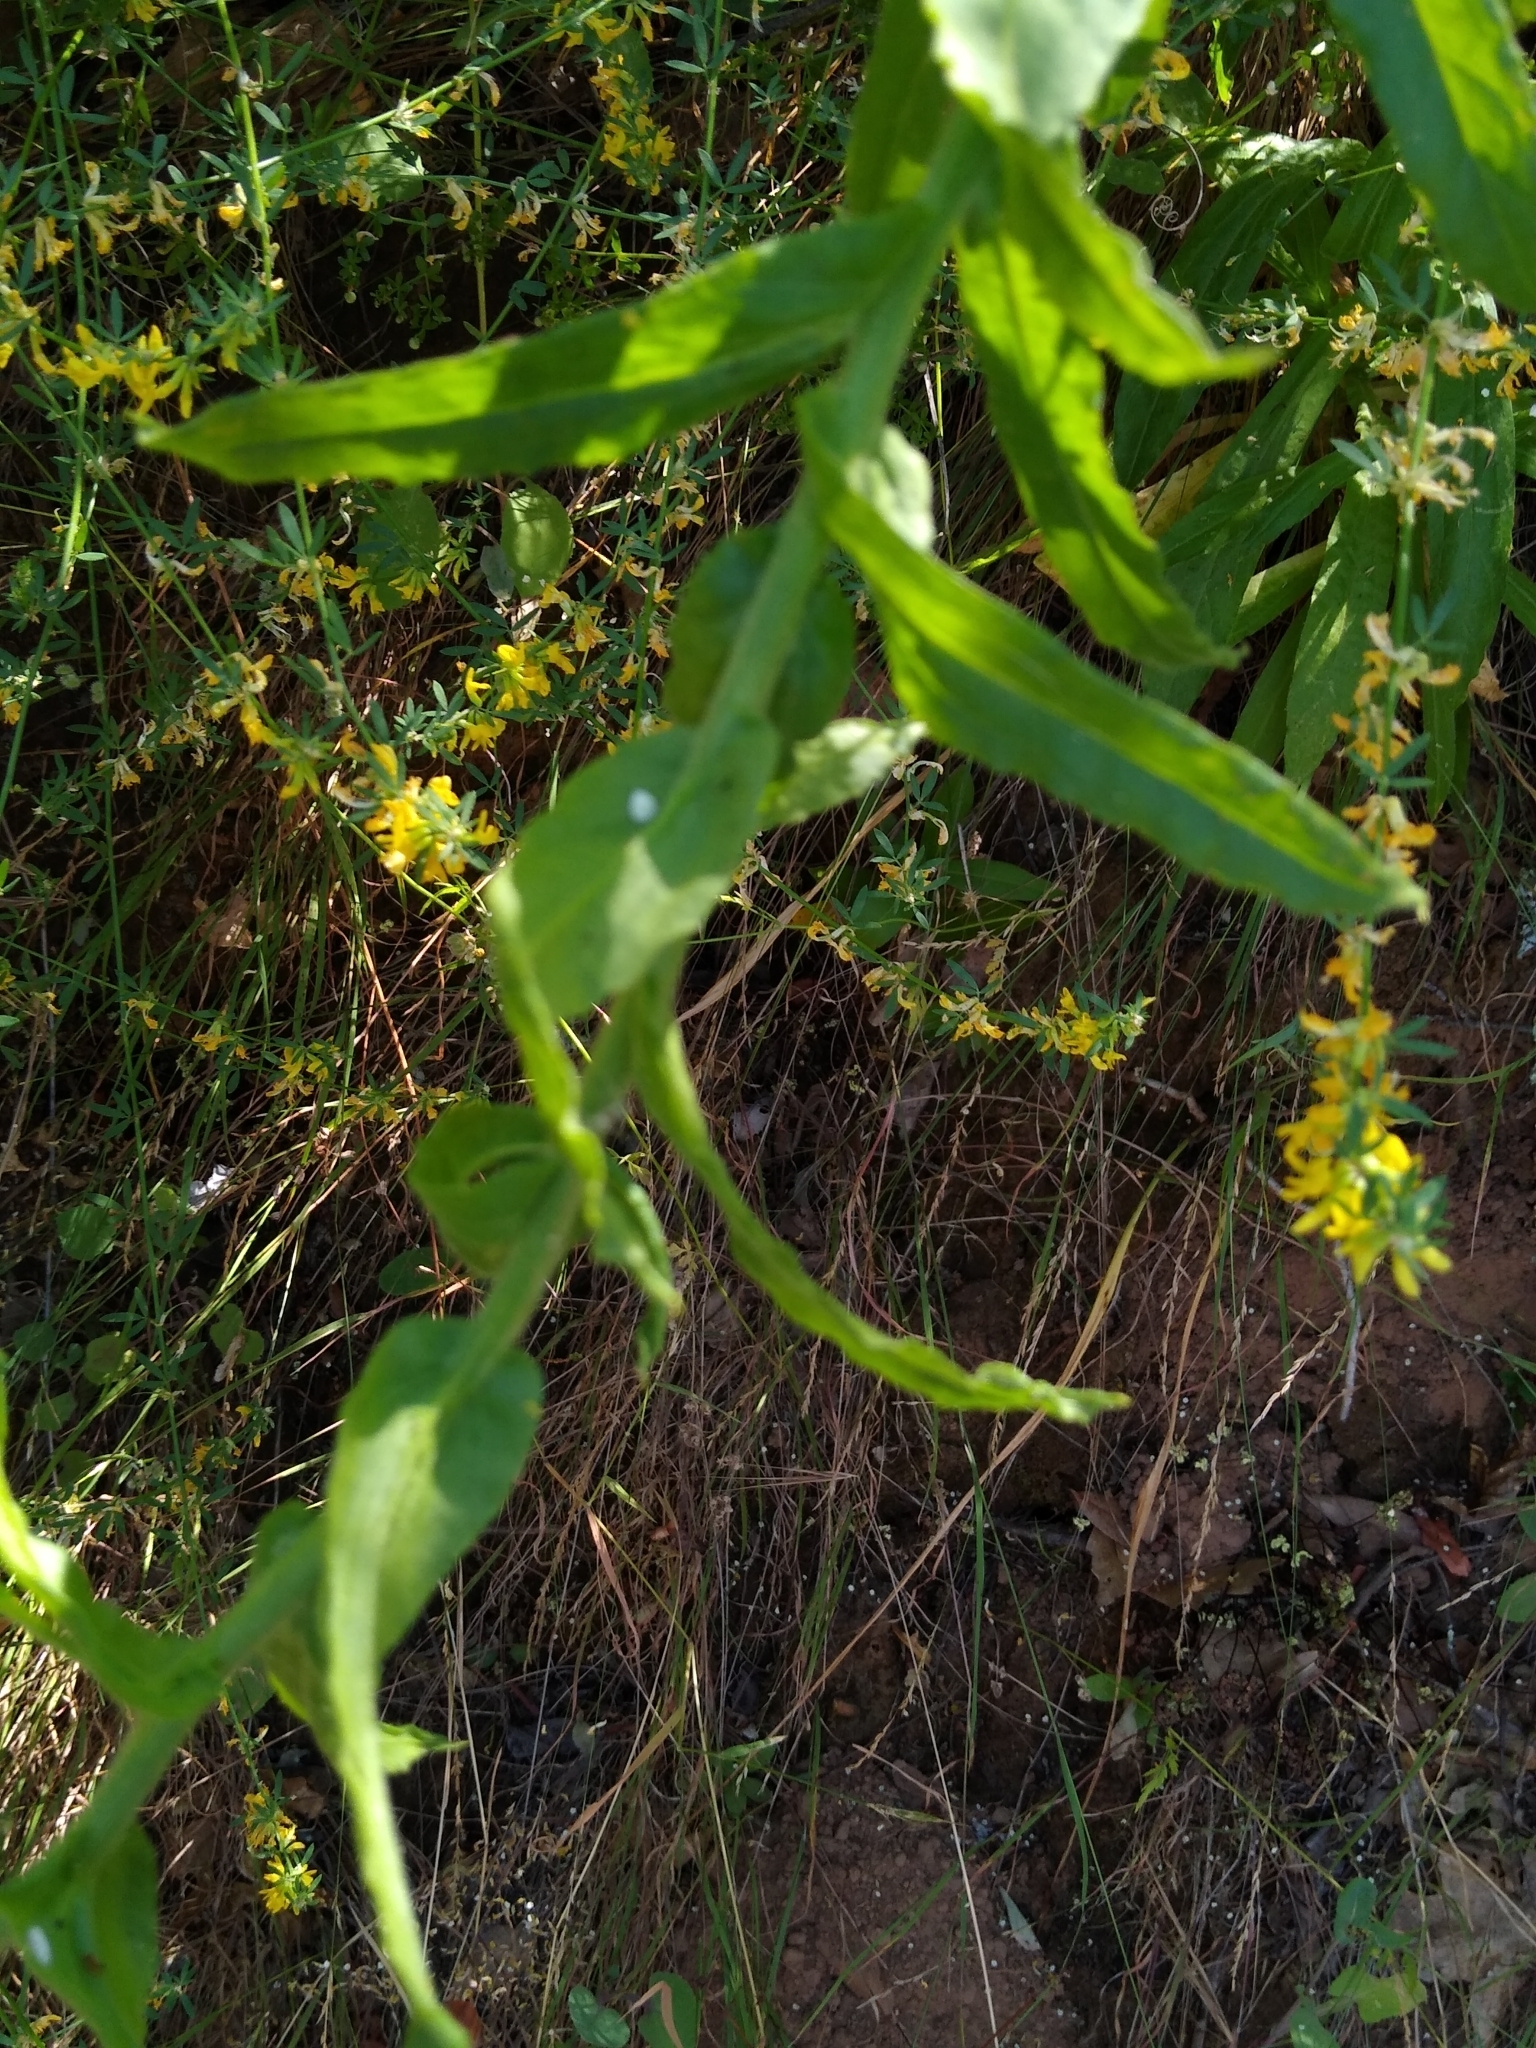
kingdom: Plantae
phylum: Tracheophyta
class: Magnoliopsida
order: Asterales
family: Asteraceae
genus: Pseudognaphalium
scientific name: Pseudognaphalium californicum
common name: California rabbit-tobacco
